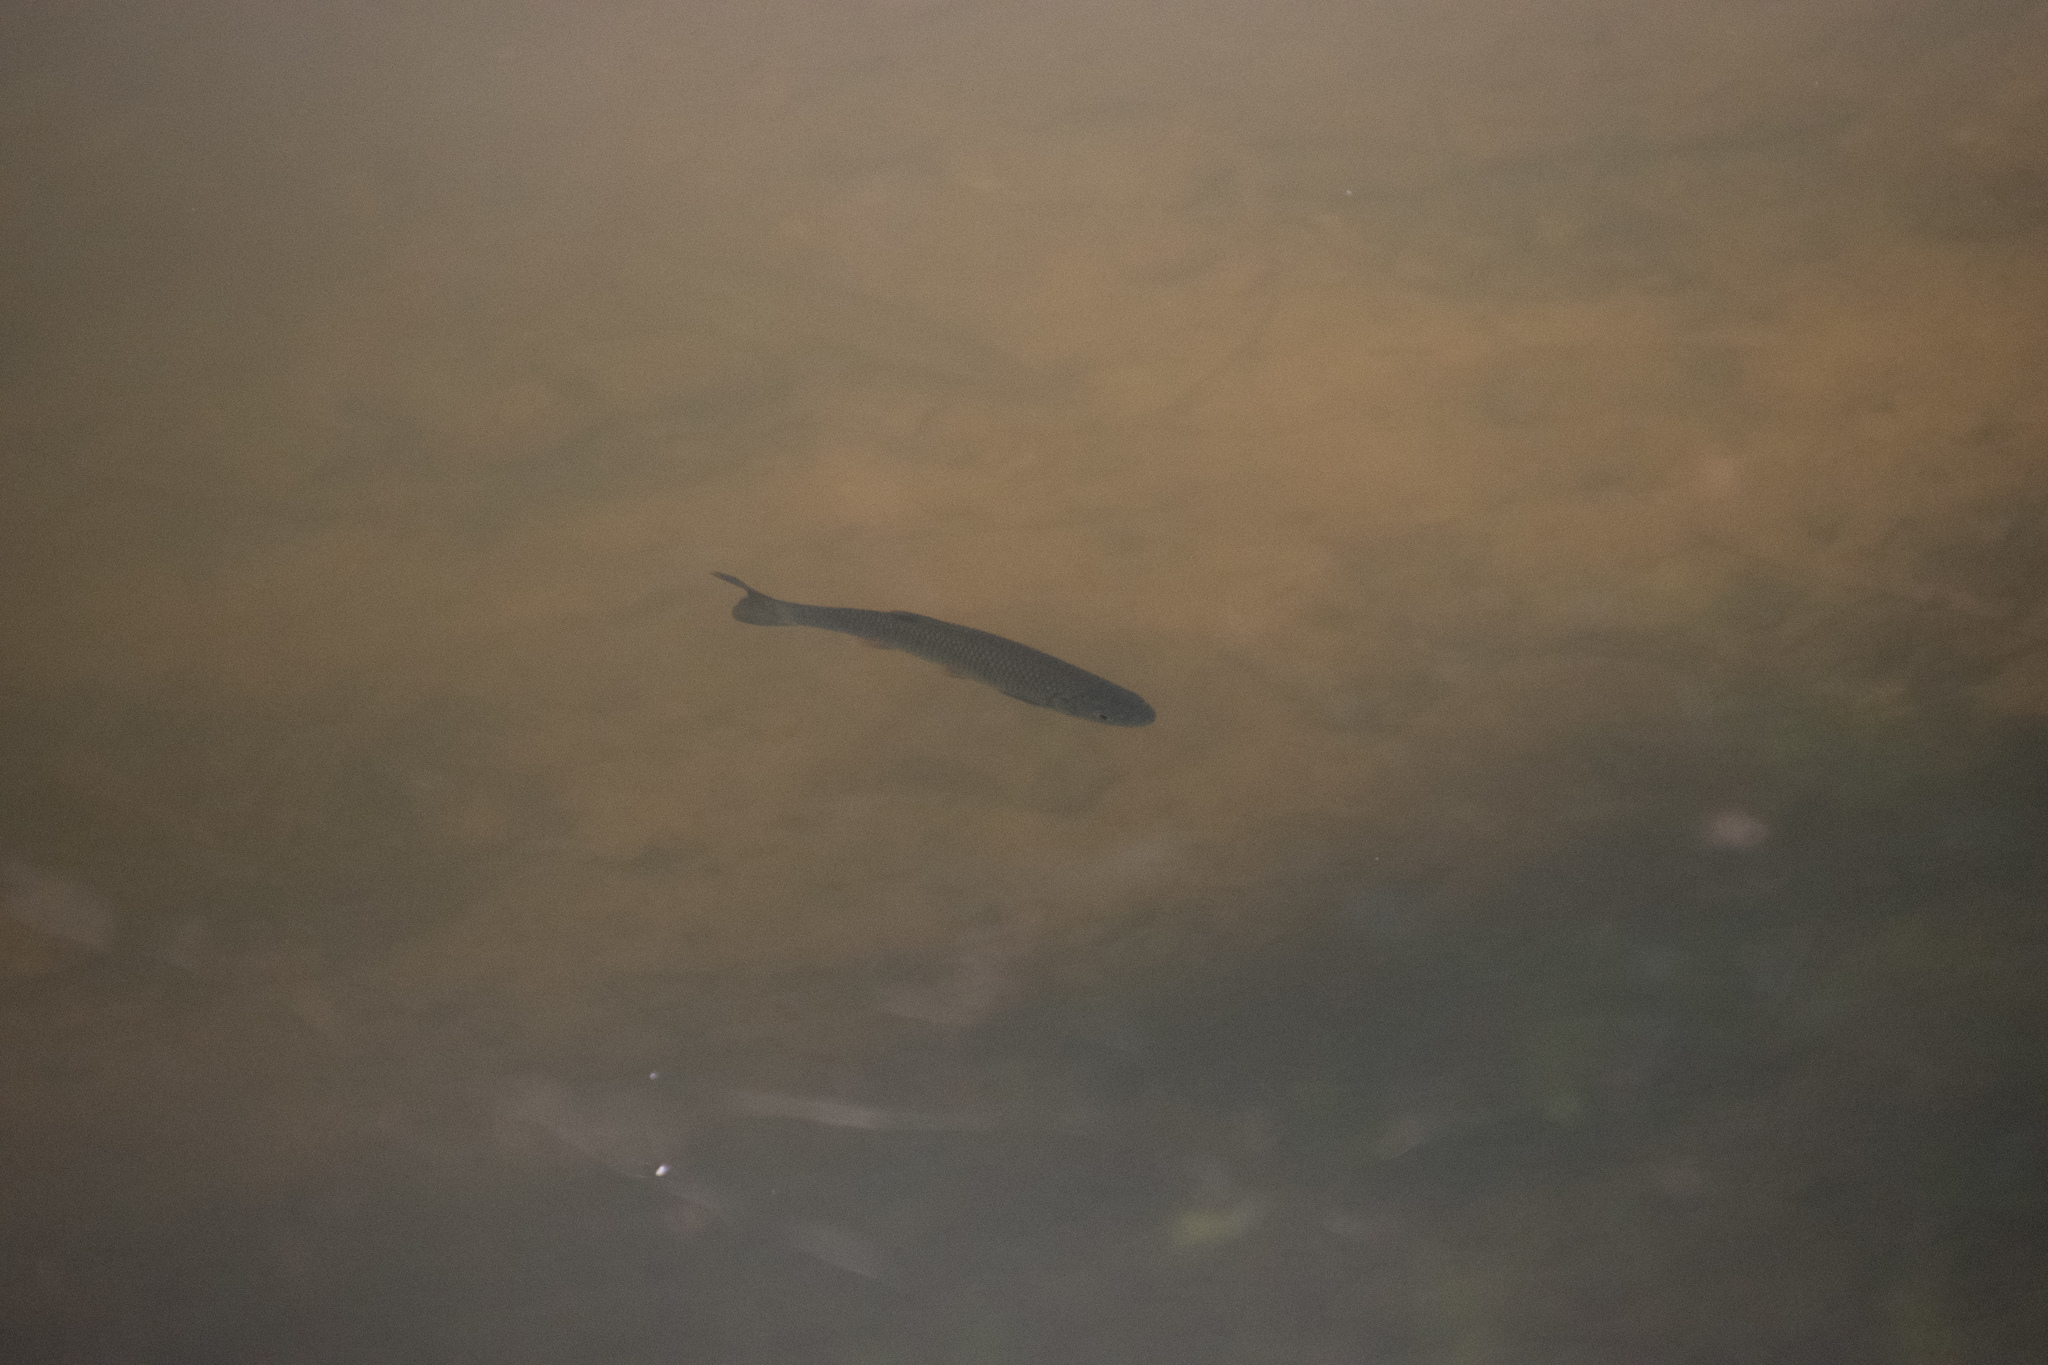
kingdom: Animalia
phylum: Chordata
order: Cypriniformes
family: Cyprinidae
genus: Squalius
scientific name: Squalius cephalus
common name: Chub
